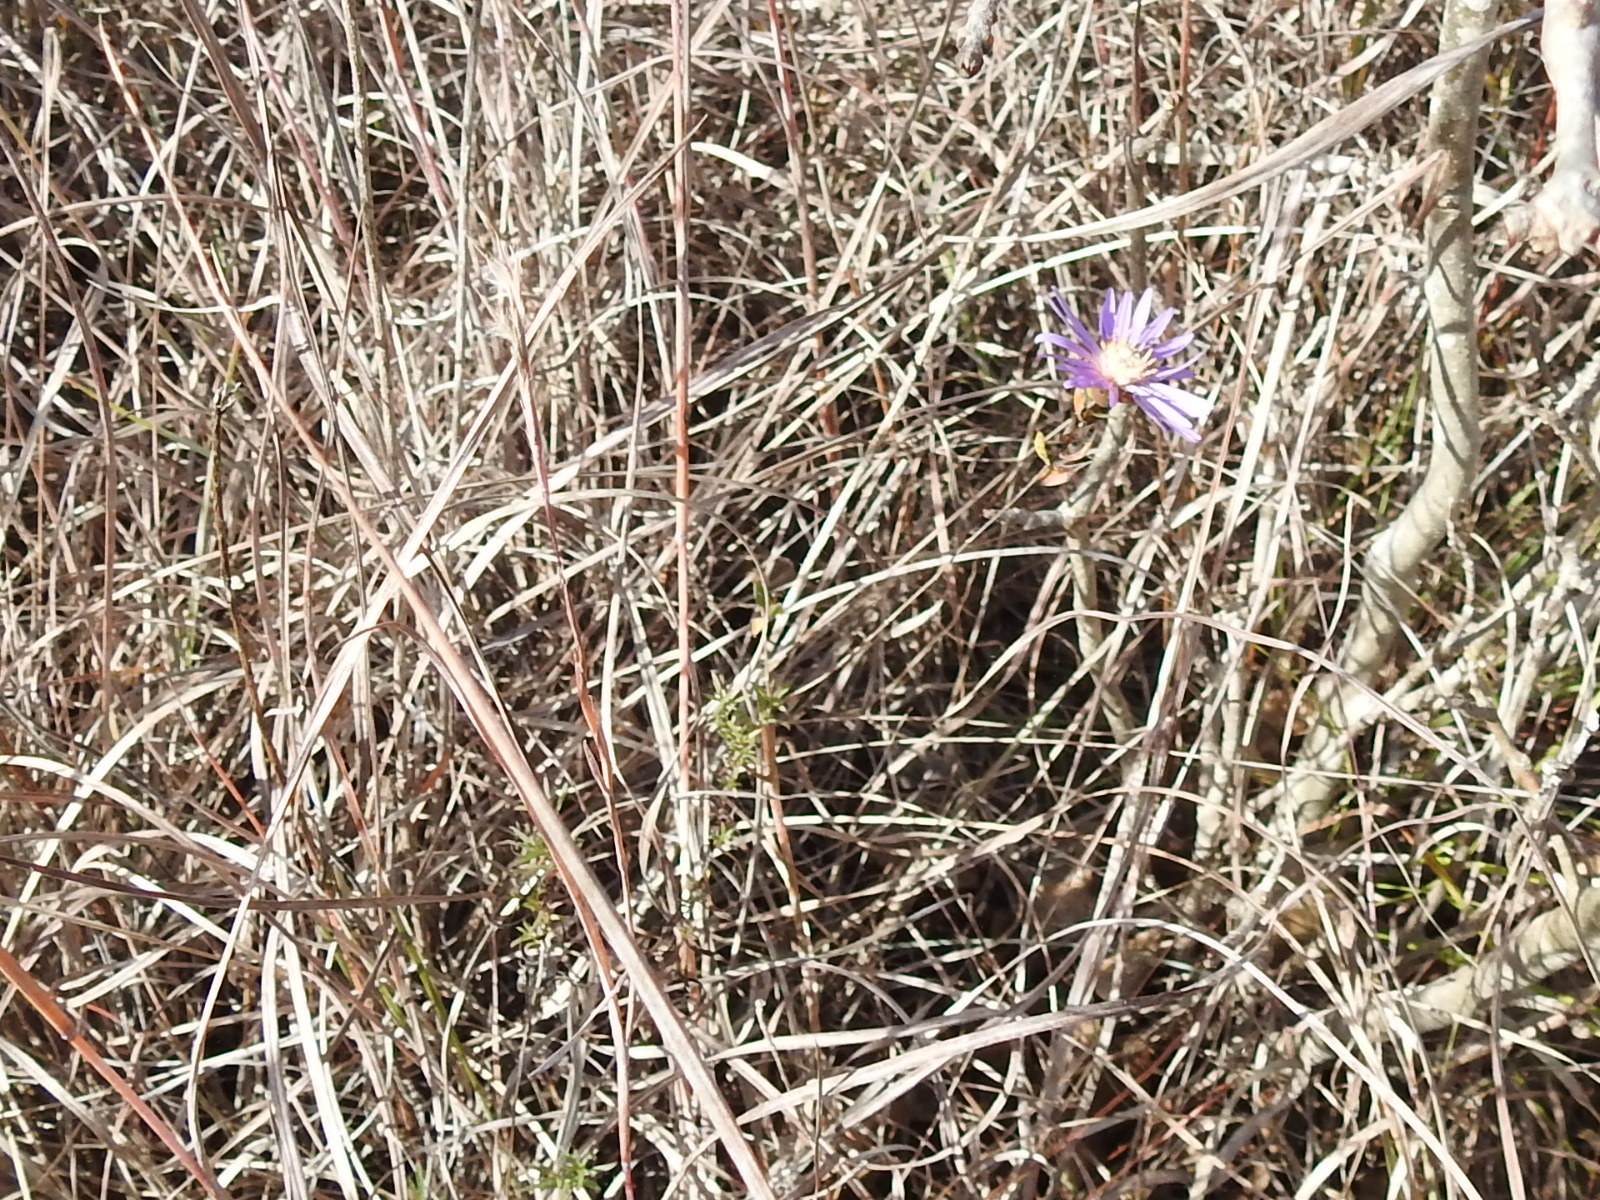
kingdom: Plantae
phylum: Tracheophyta
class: Magnoliopsida
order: Asterales
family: Asteraceae
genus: Symphyotrichum
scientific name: Symphyotrichum pratense
